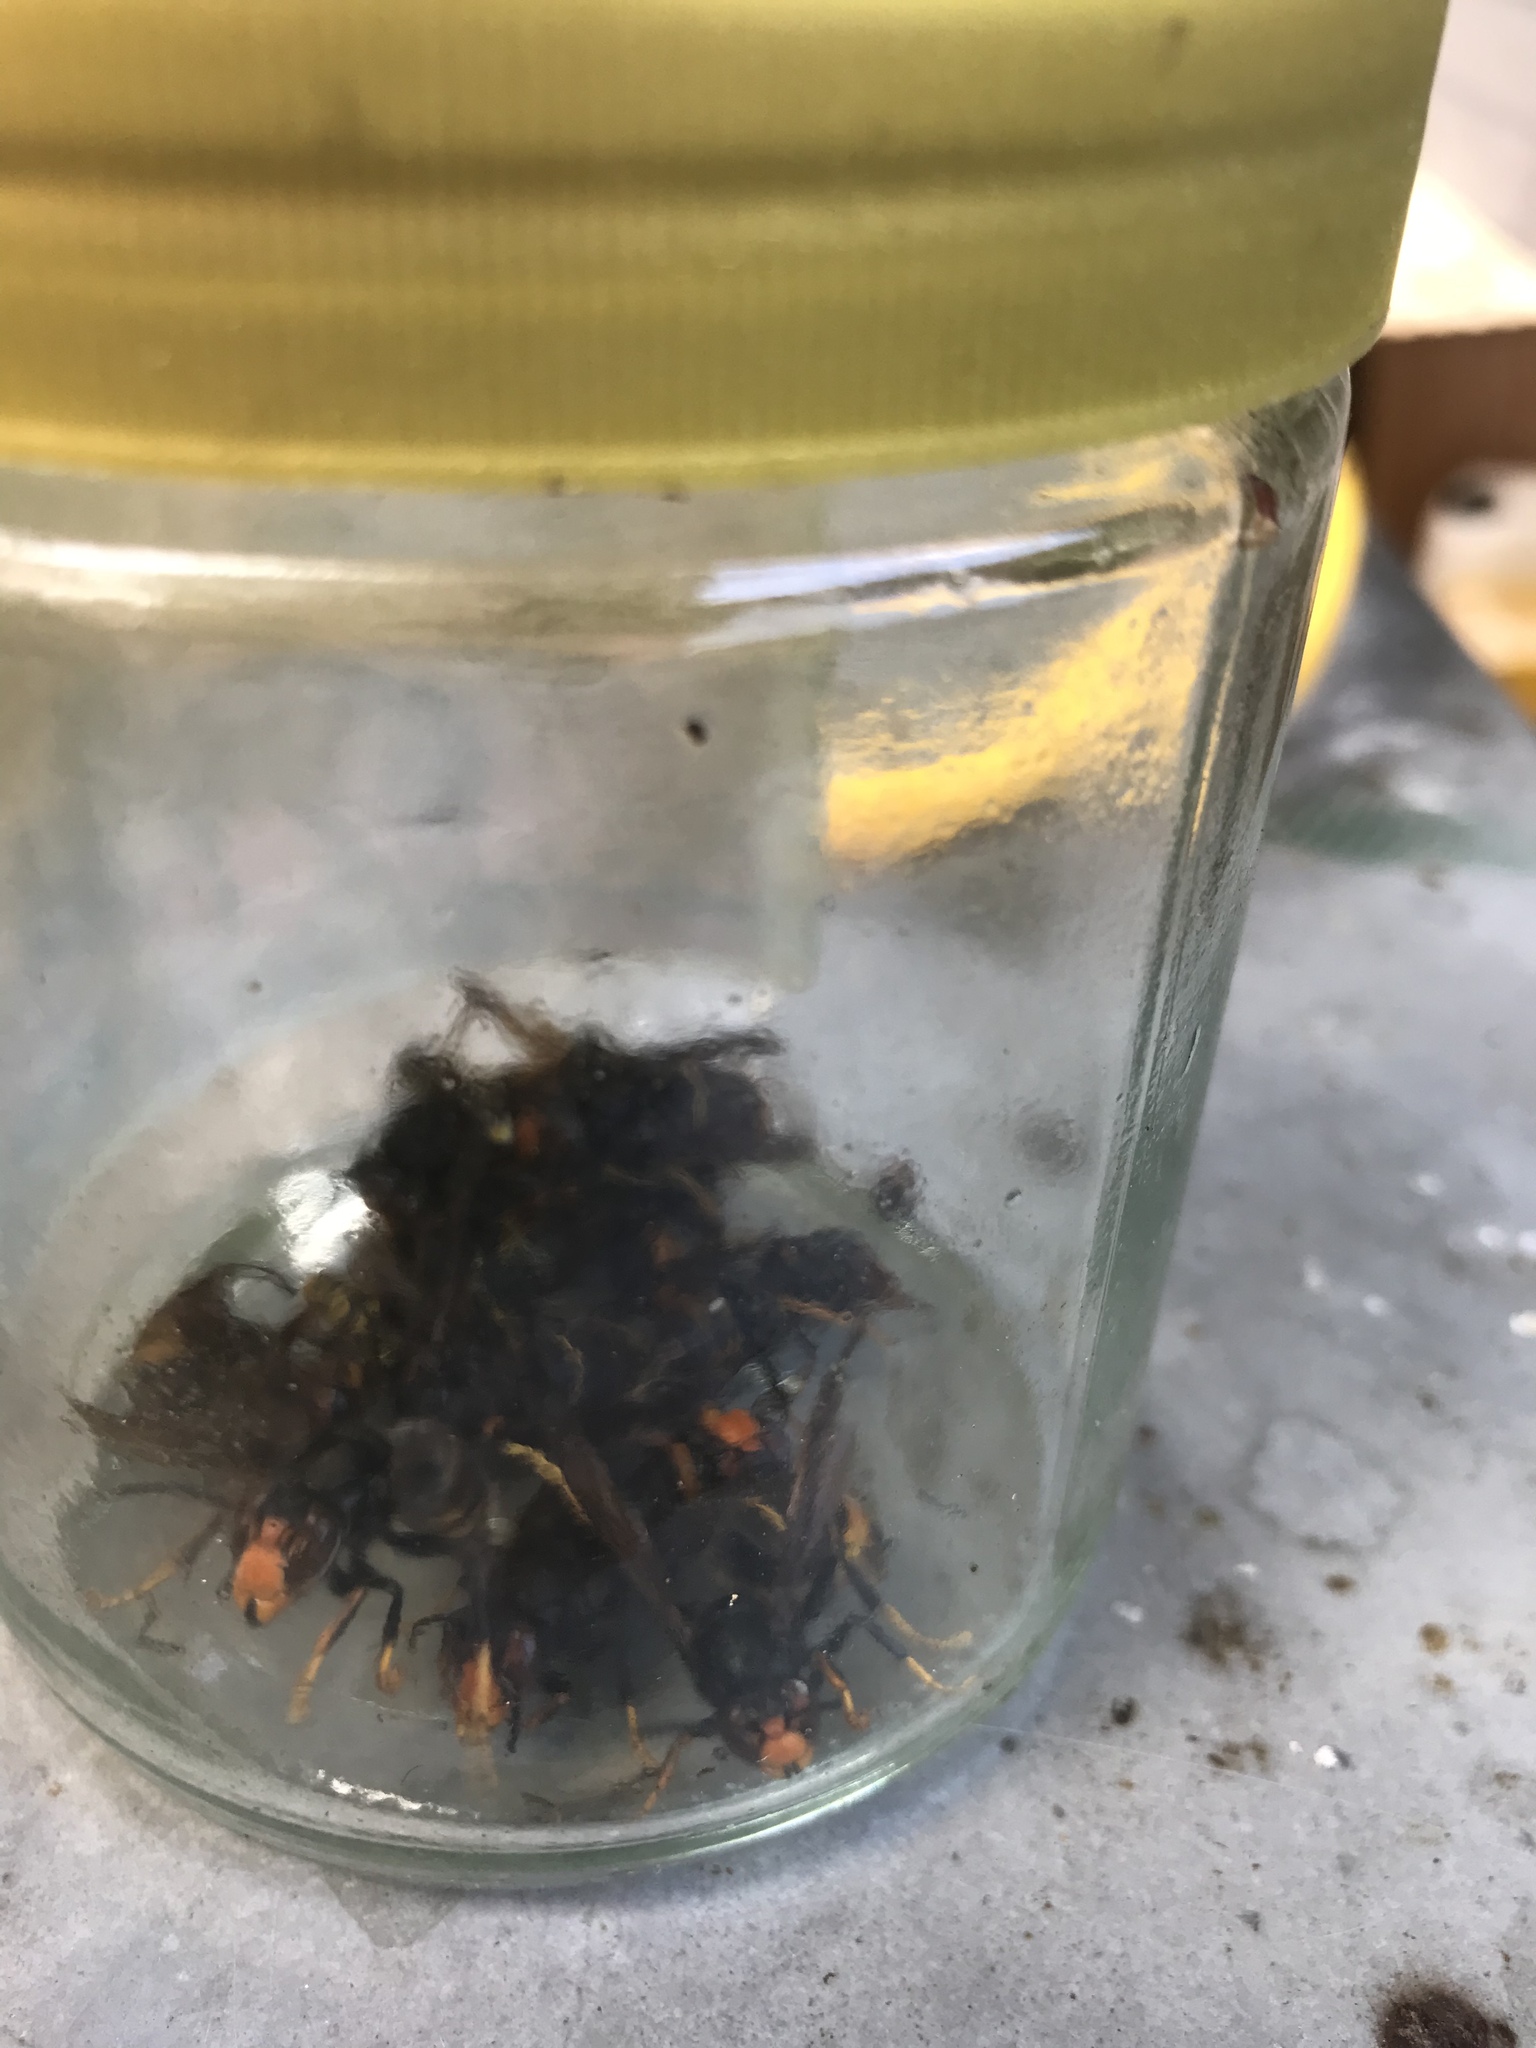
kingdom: Animalia
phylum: Arthropoda
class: Insecta
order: Hymenoptera
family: Vespidae
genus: Vespa
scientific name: Vespa velutina
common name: Asian hornet
